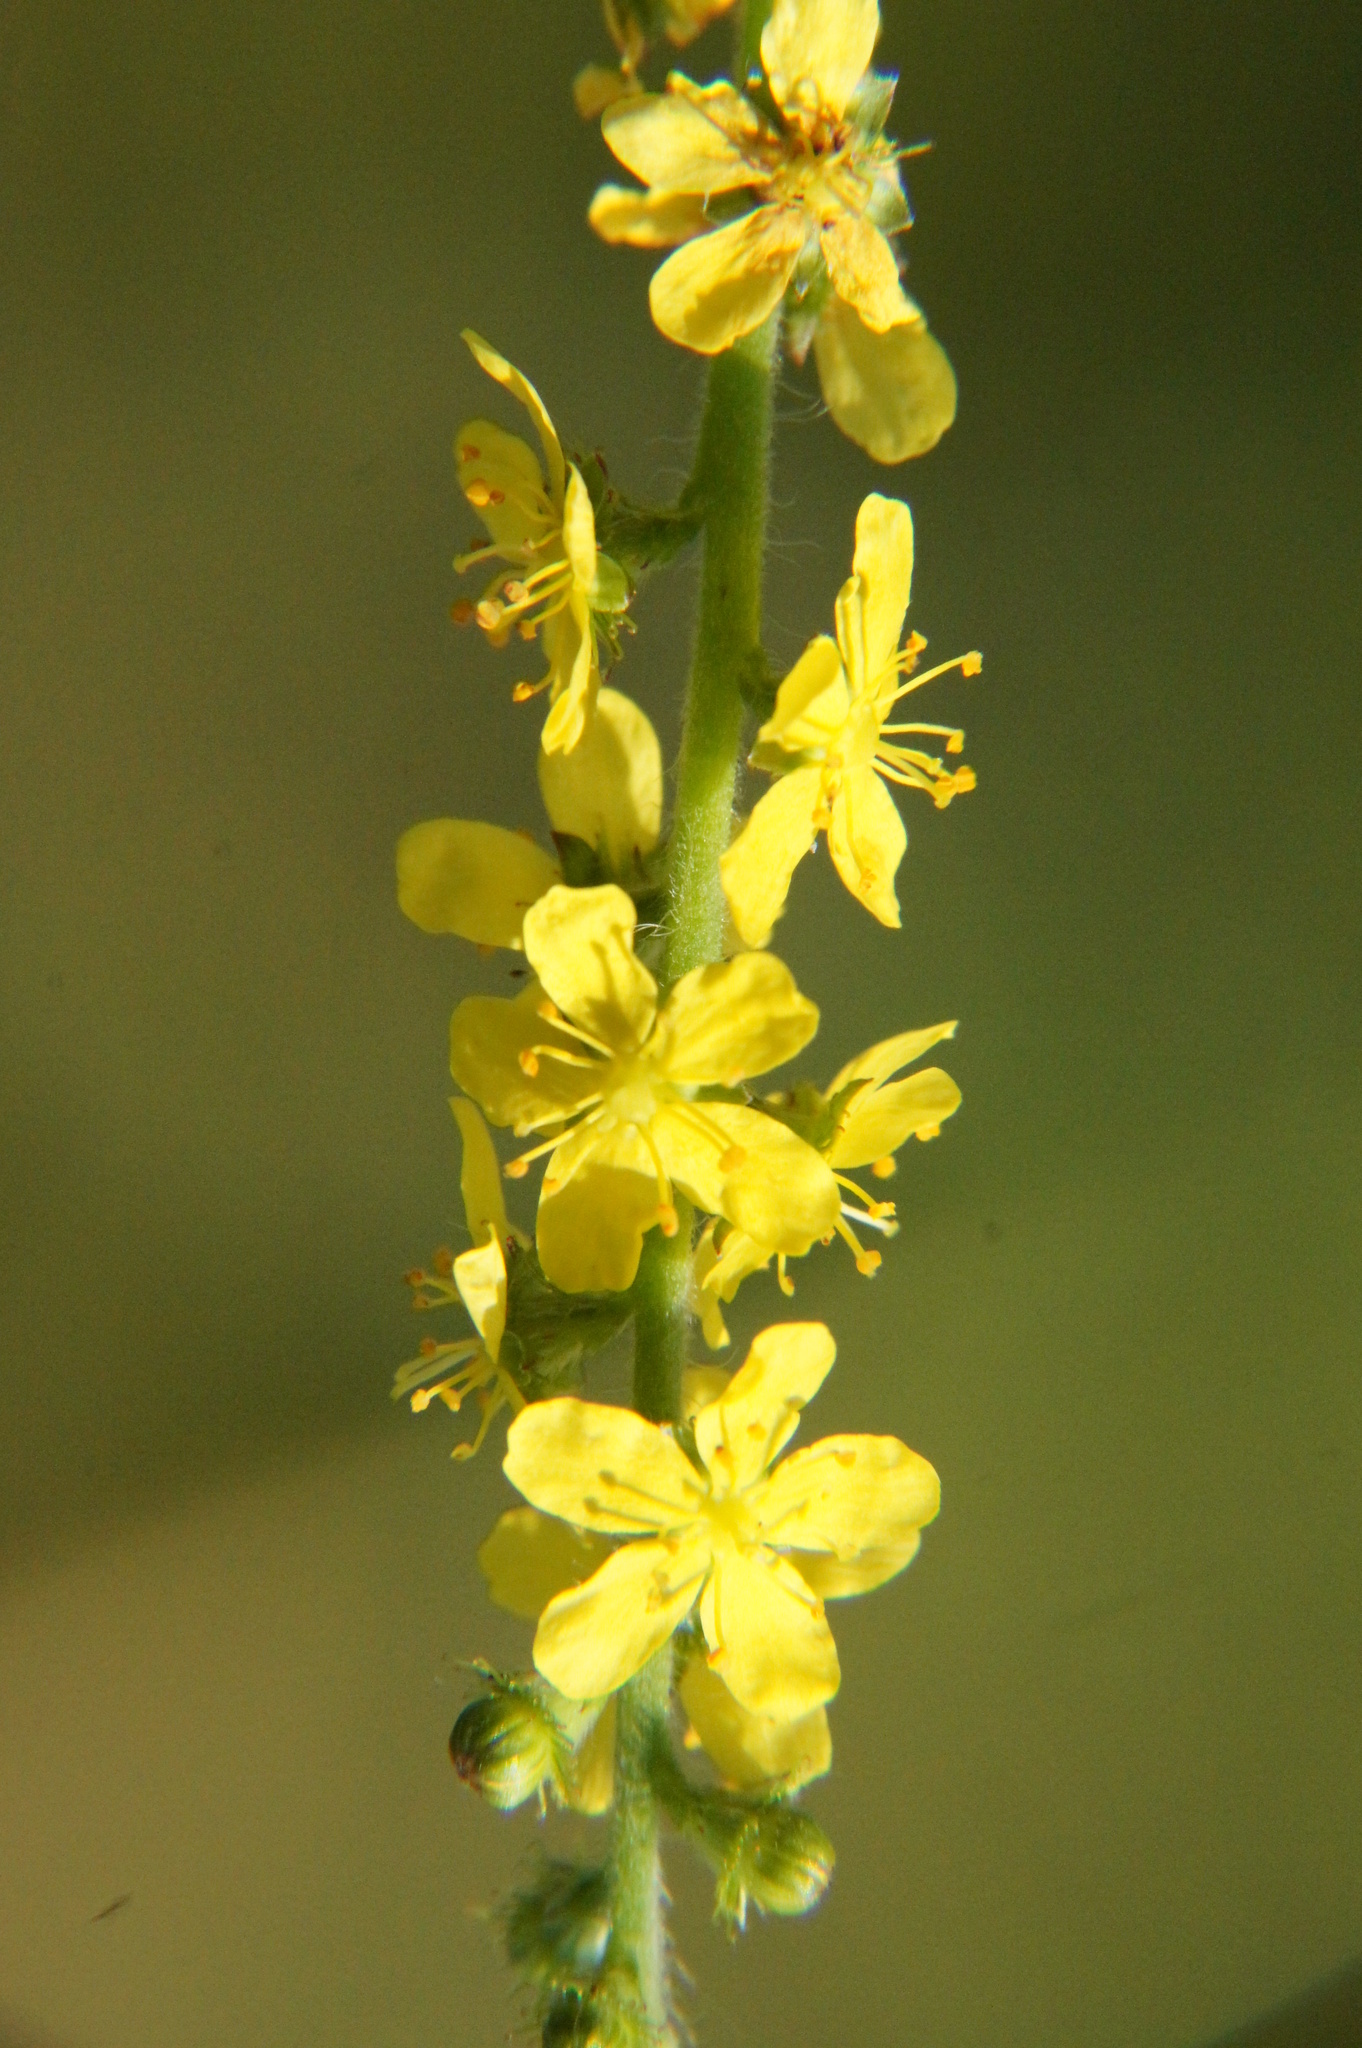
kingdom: Plantae
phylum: Tracheophyta
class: Magnoliopsida
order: Rosales
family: Rosaceae
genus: Agrimonia
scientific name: Agrimonia eupatoria
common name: Agrimony
